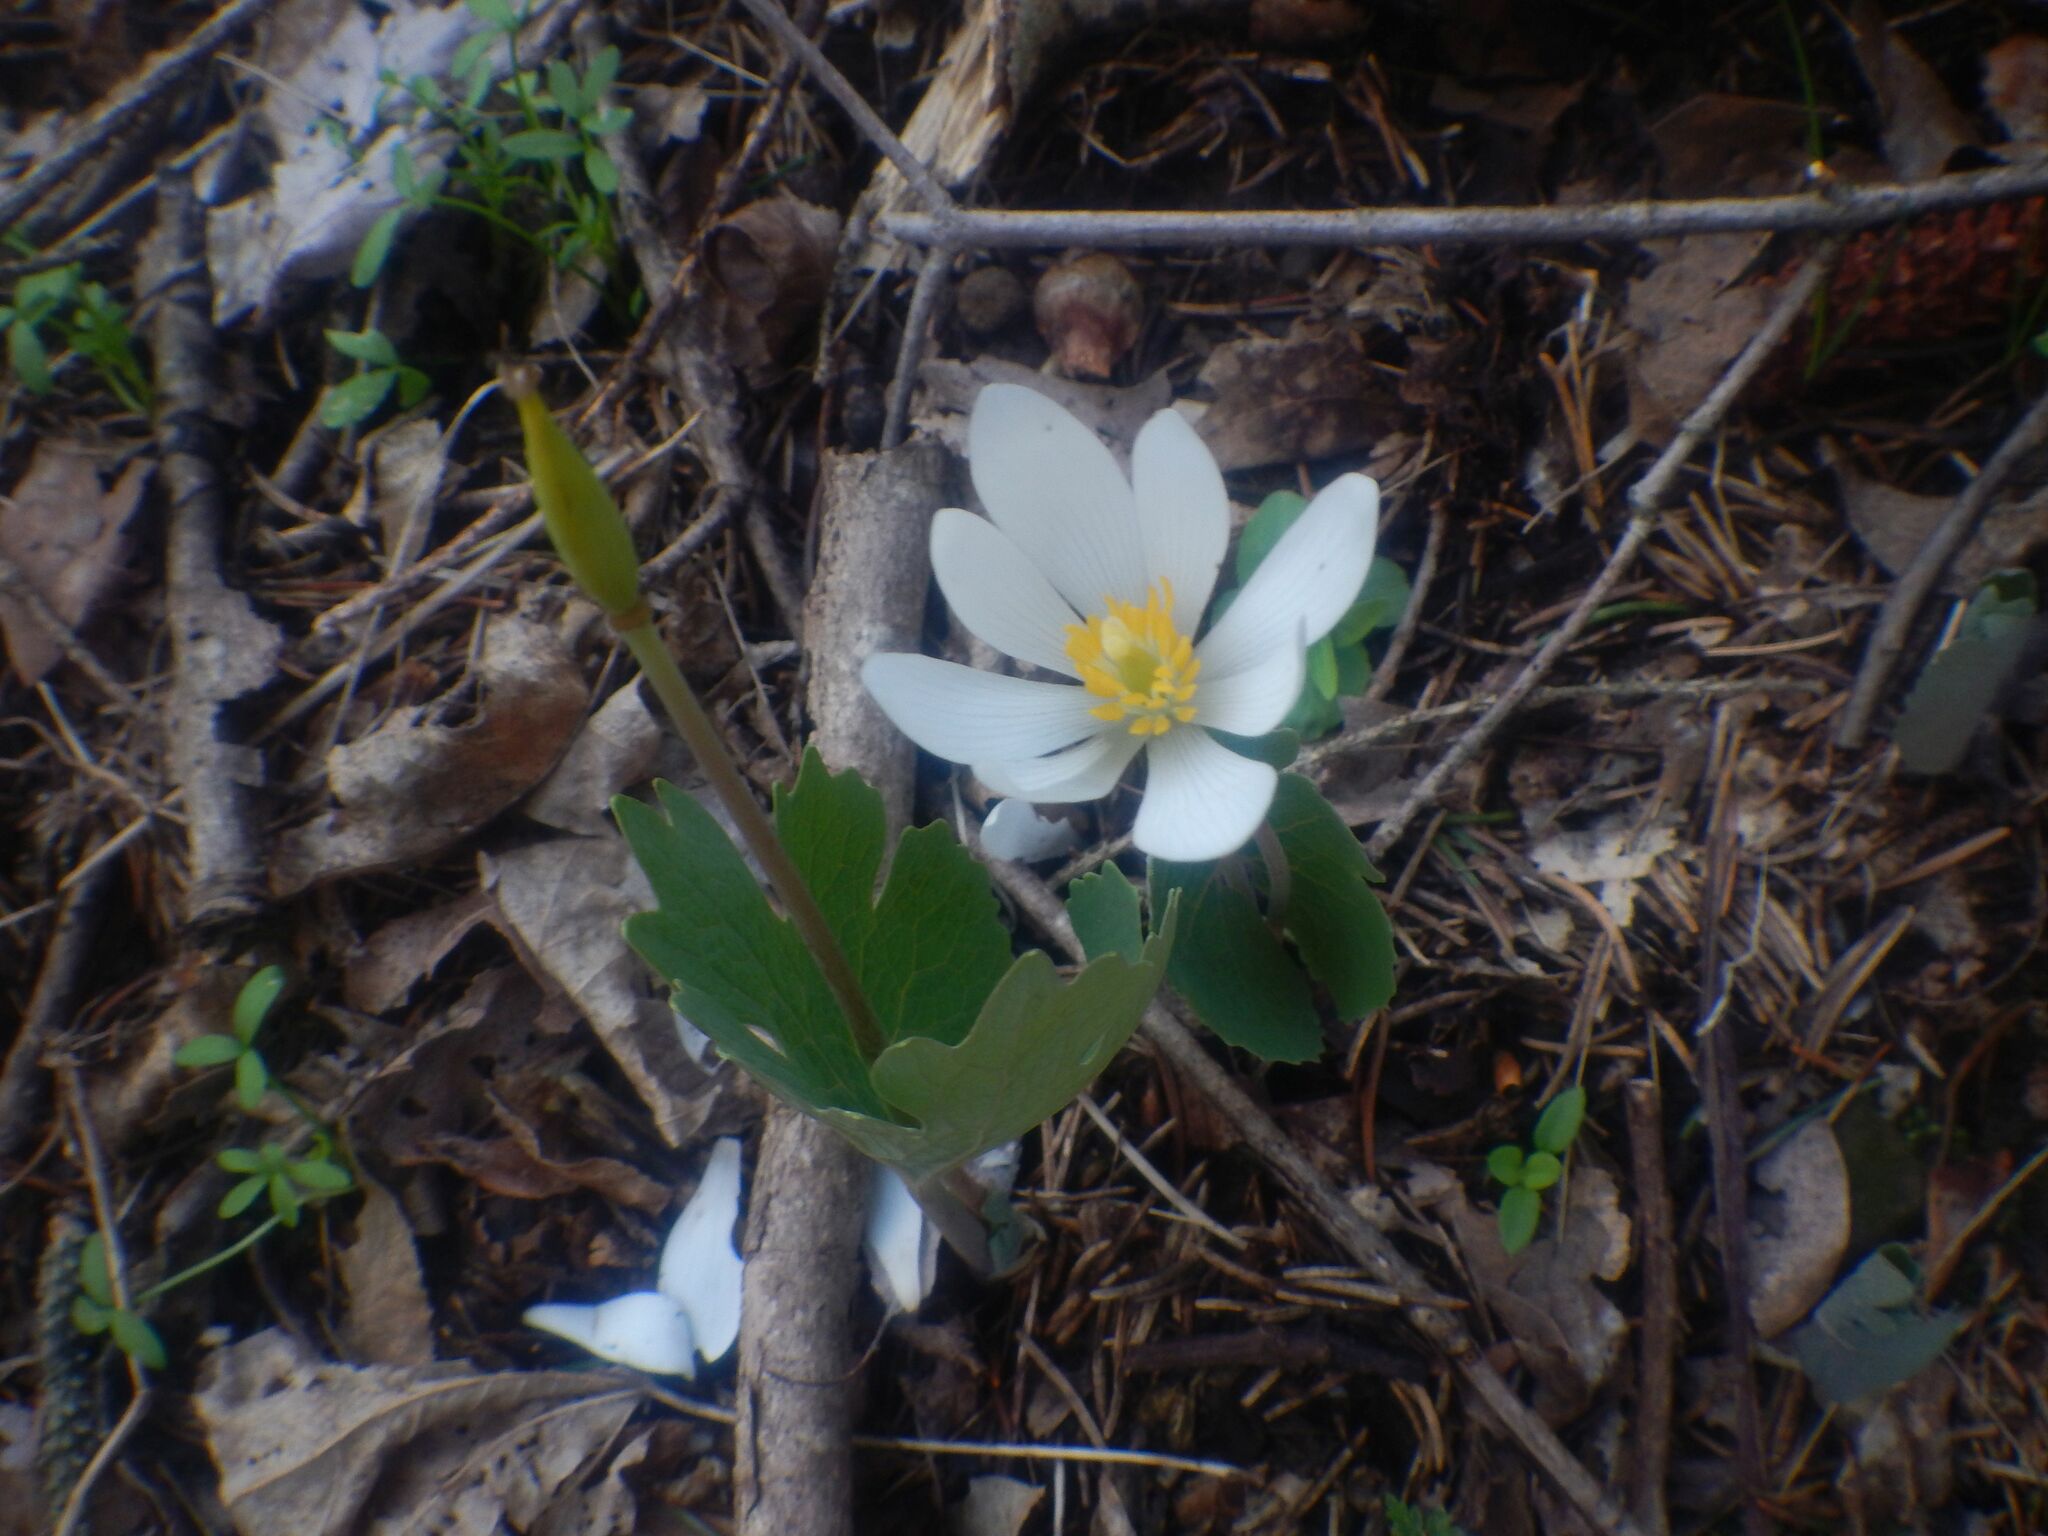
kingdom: Plantae
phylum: Tracheophyta
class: Magnoliopsida
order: Ranunculales
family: Papaveraceae
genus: Sanguinaria
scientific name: Sanguinaria canadensis
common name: Bloodroot
